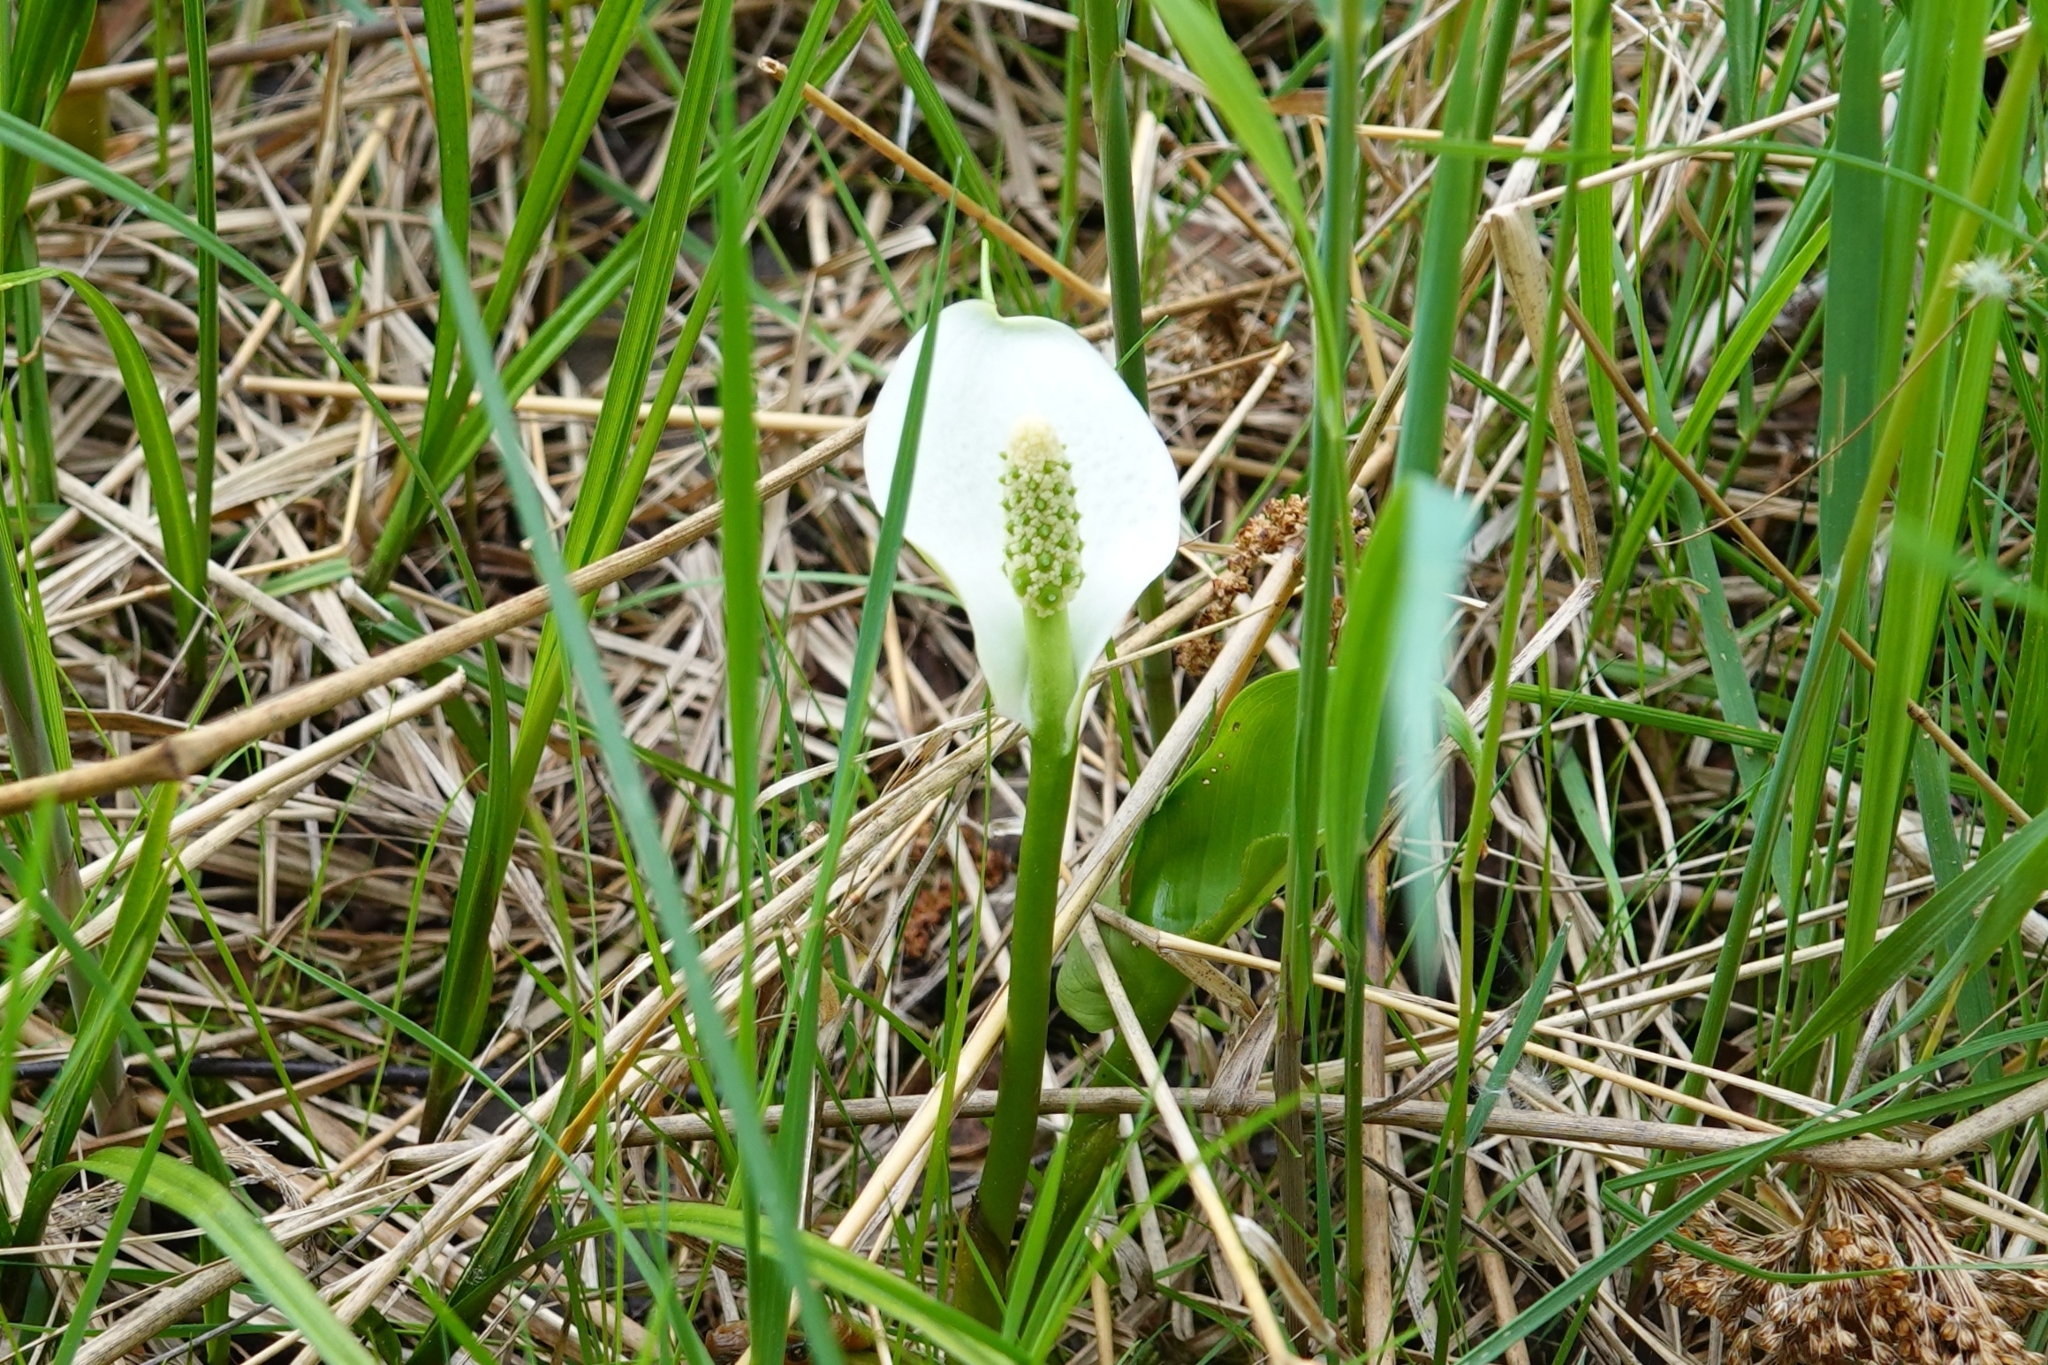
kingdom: Plantae
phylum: Tracheophyta
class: Liliopsida
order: Alismatales
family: Araceae
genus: Calla
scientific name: Calla palustris
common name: Bog arum
